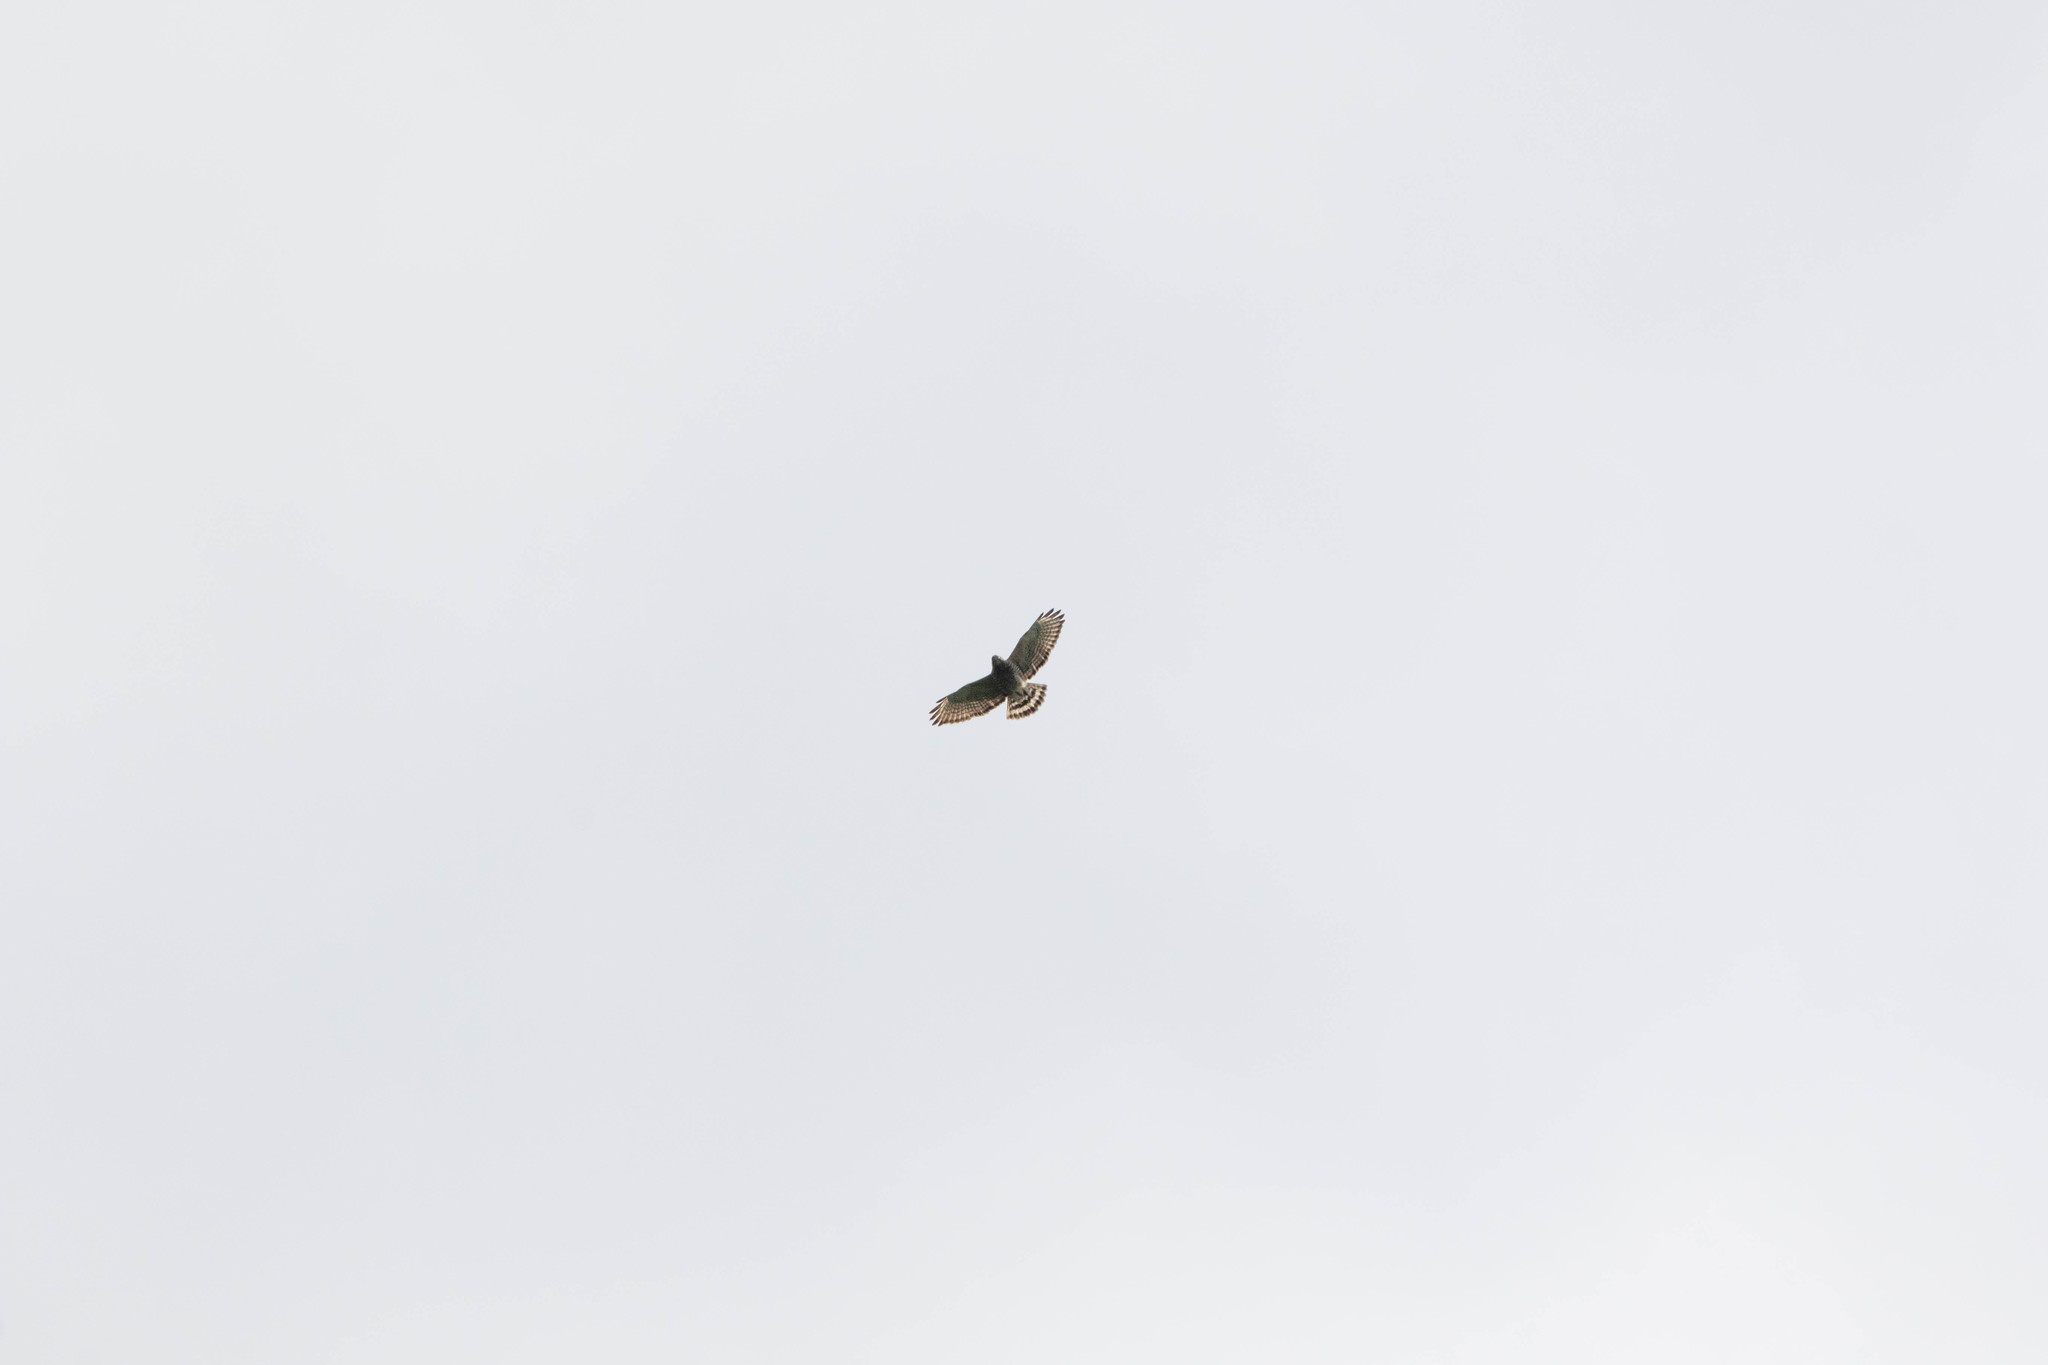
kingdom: Animalia
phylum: Chordata
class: Aves
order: Accipitriformes
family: Accipitridae
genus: Buteo
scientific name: Buteo platypterus
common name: Broad-winged hawk
